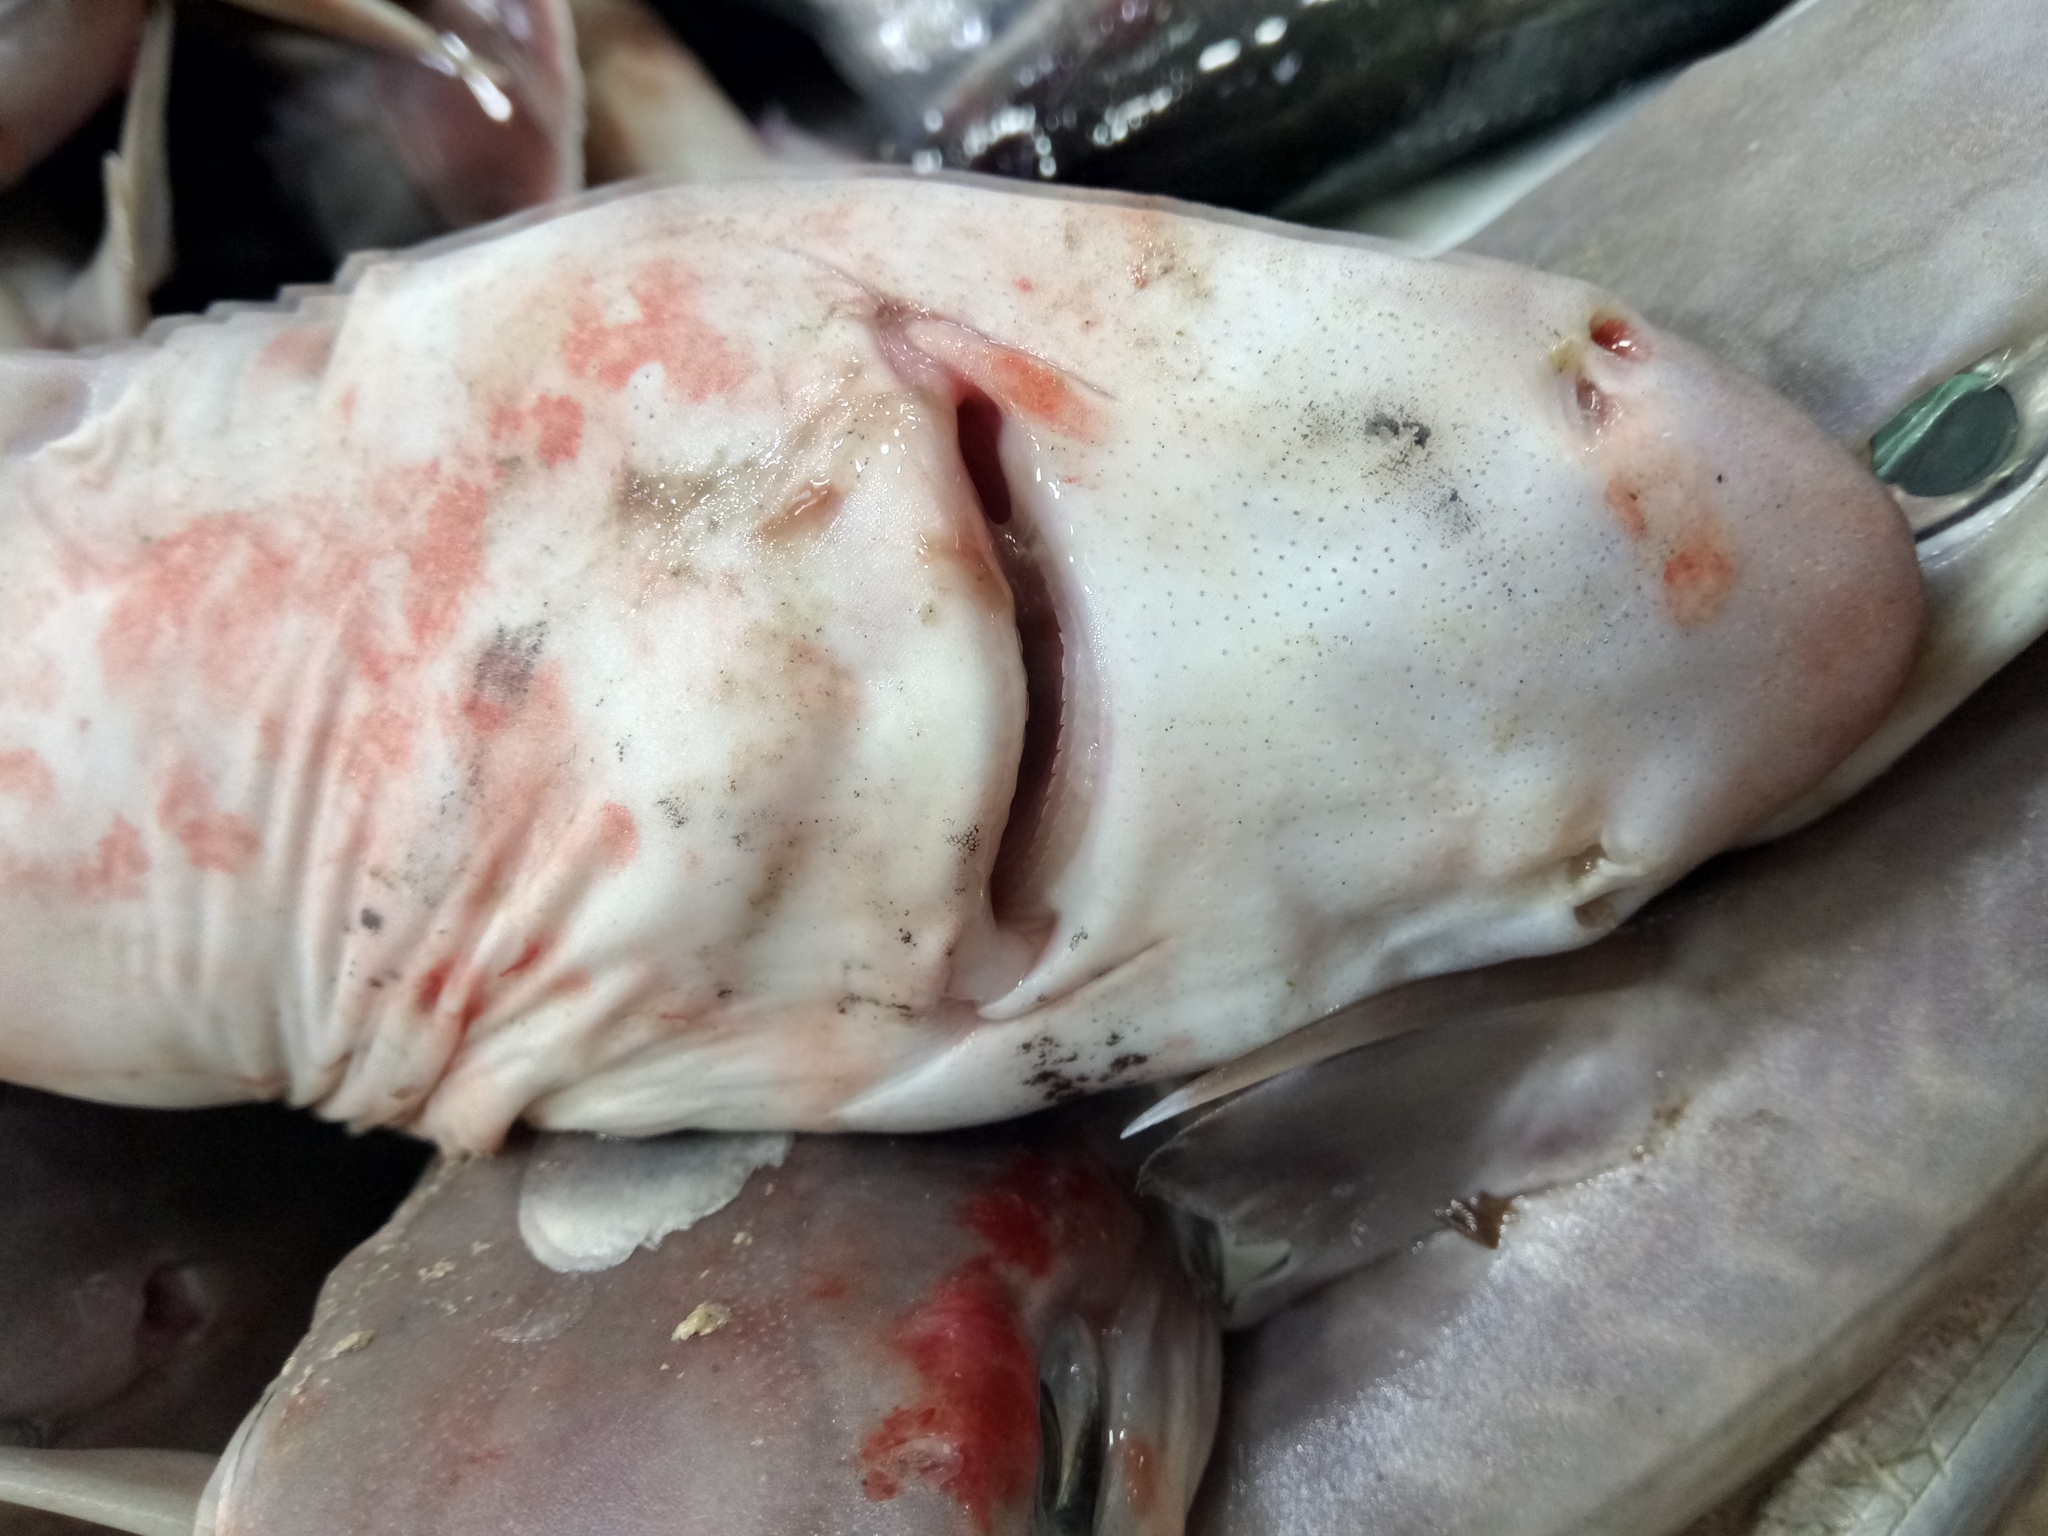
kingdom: Animalia
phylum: Chordata
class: Elasmobranchii
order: Squaliformes
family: Squalidae
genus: Squalus
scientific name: Squalus blainville
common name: Longnose spurdog
